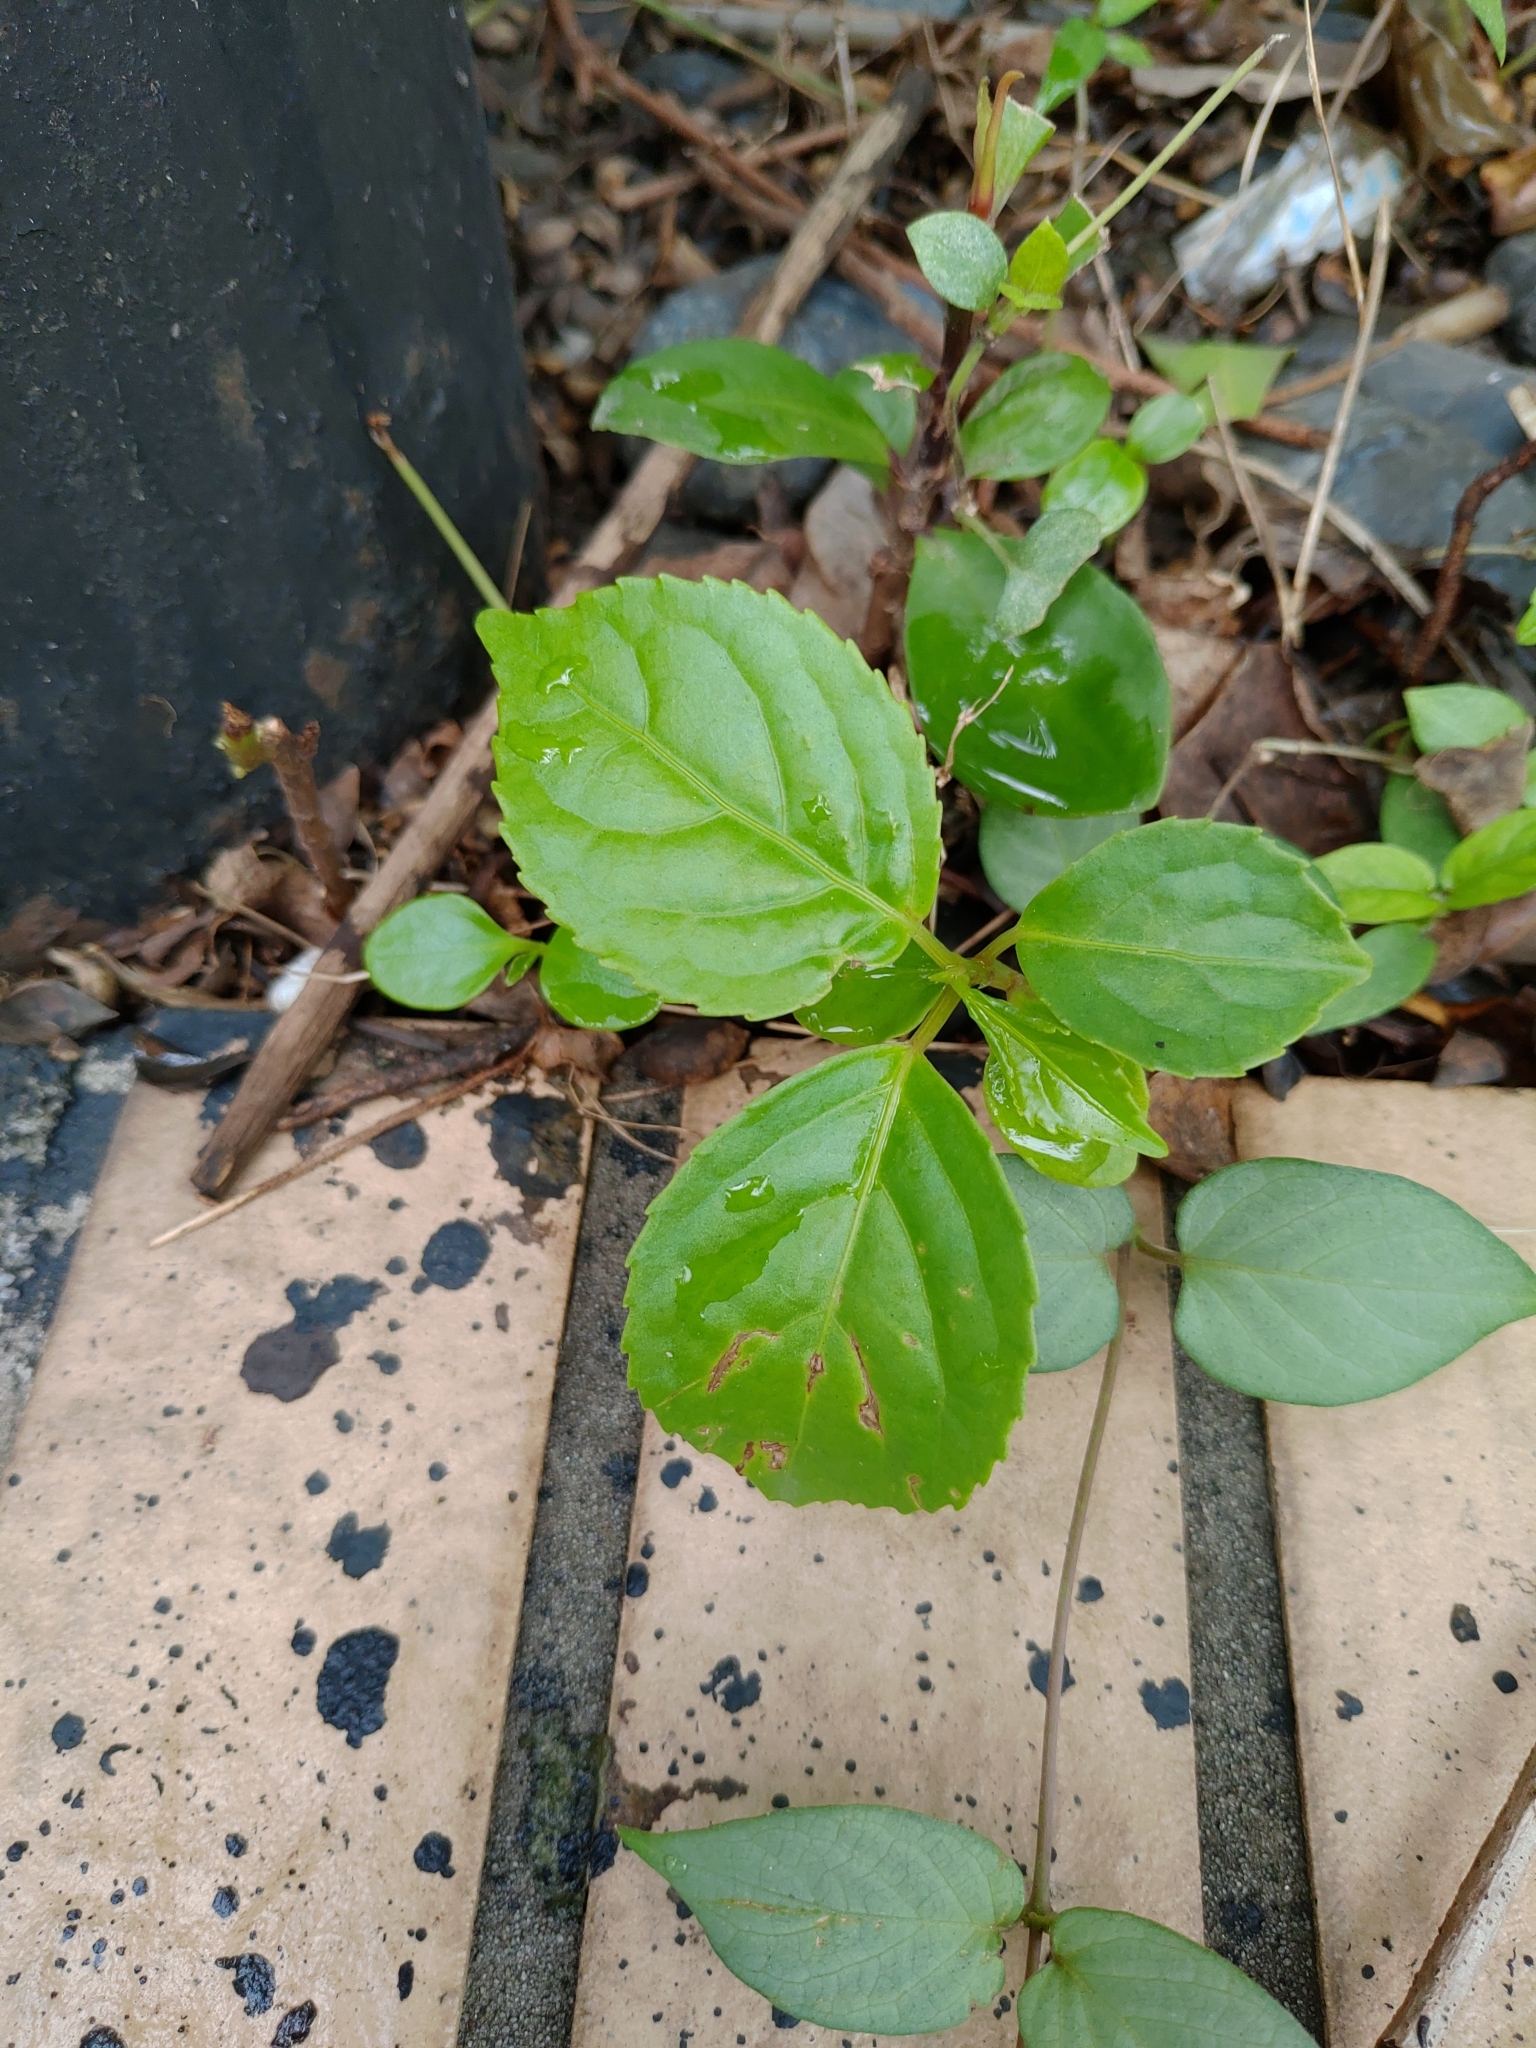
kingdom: Plantae
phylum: Tracheophyta
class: Magnoliopsida
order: Malpighiales
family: Phyllanthaceae
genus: Bischofia
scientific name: Bischofia javanica
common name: Javanese bishopwood
